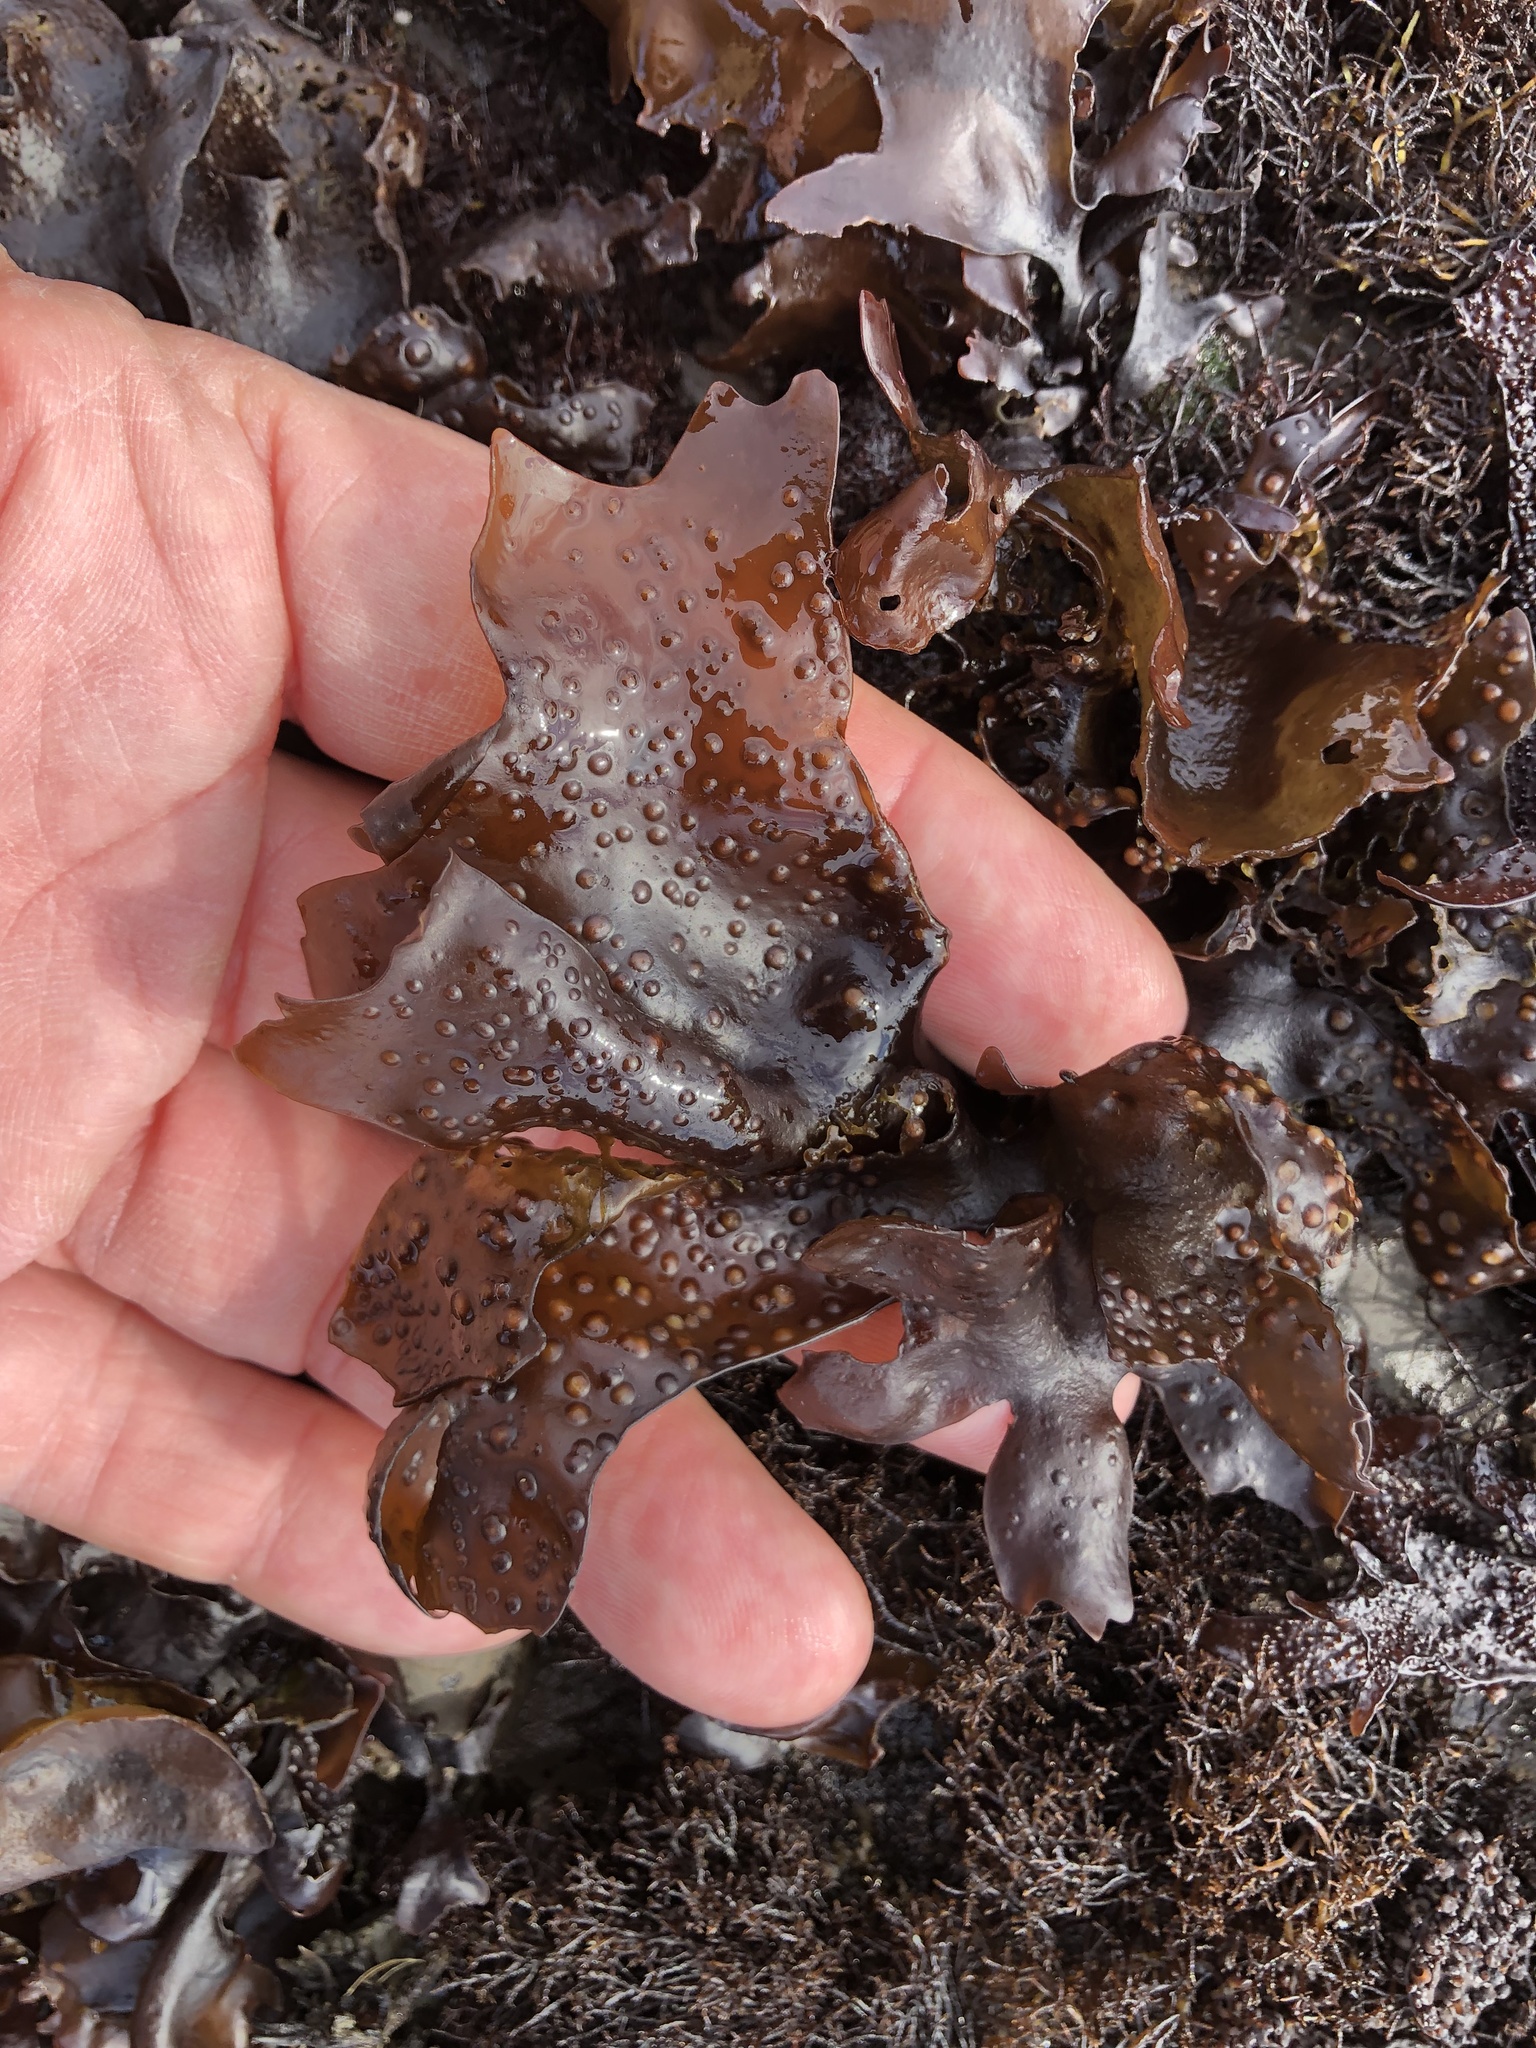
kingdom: Plantae
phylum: Rhodophyta
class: Florideophyceae
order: Gigartinales
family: Gigartinaceae
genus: Mazzaella
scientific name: Mazzaella oregona
